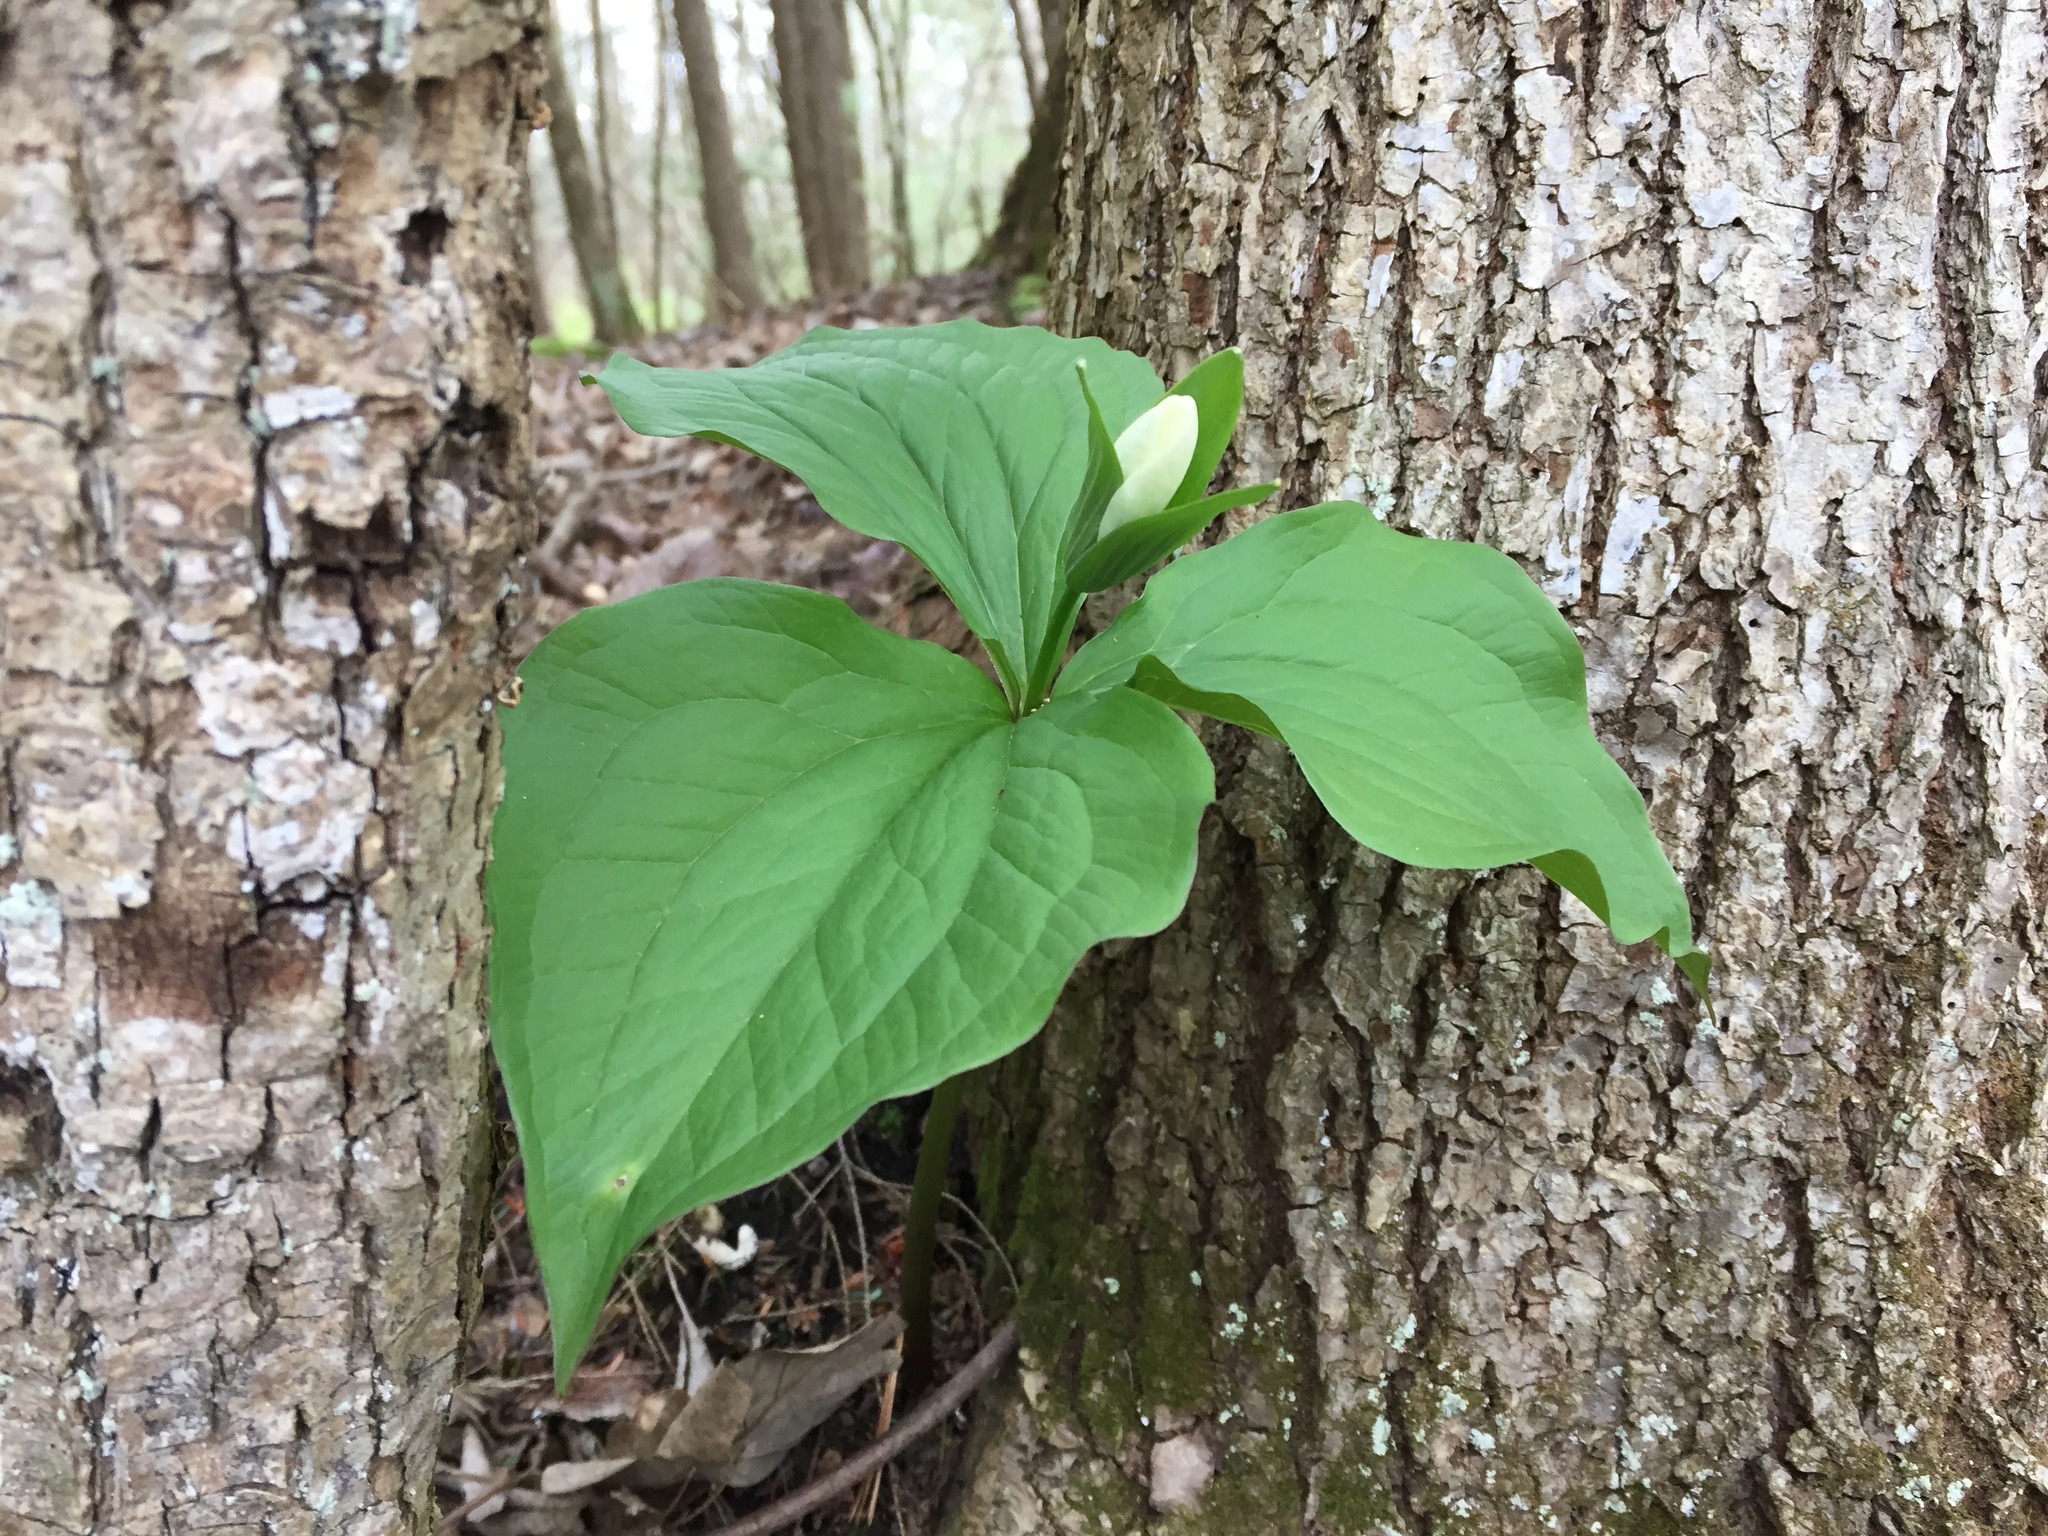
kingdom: Plantae
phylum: Tracheophyta
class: Liliopsida
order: Liliales
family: Melanthiaceae
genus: Trillium
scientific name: Trillium grandiflorum
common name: Great white trillium
